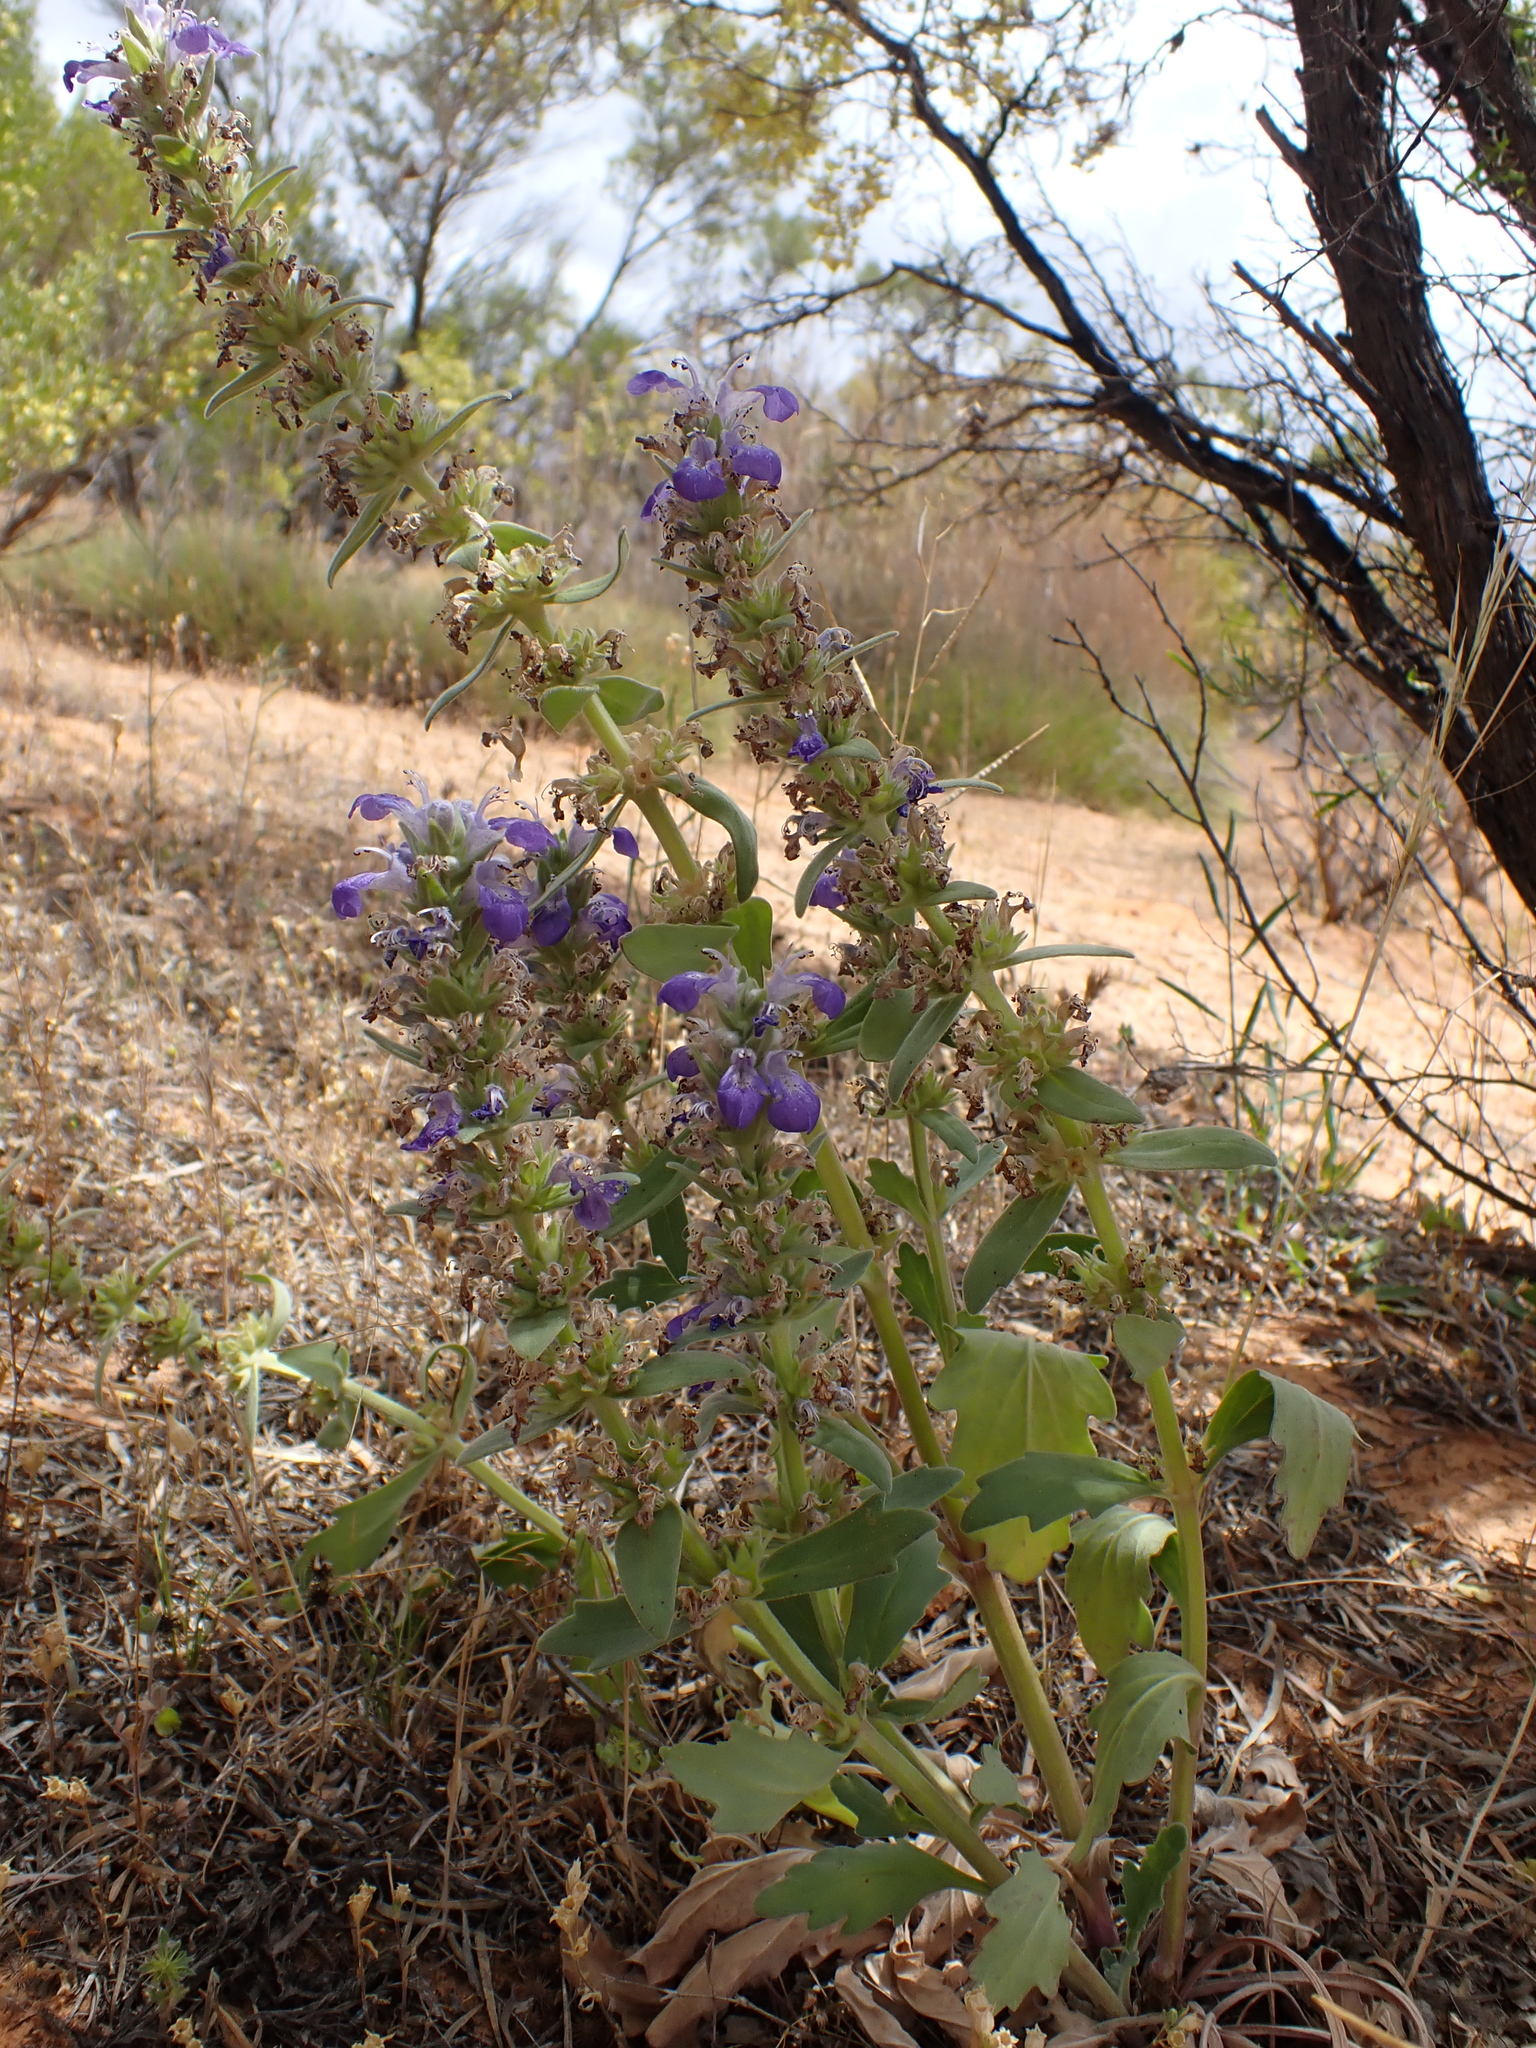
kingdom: Plantae
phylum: Tracheophyta
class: Magnoliopsida
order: Lamiales
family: Lamiaceae
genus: Ajuga
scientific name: Ajuga australis
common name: Australian bugle
